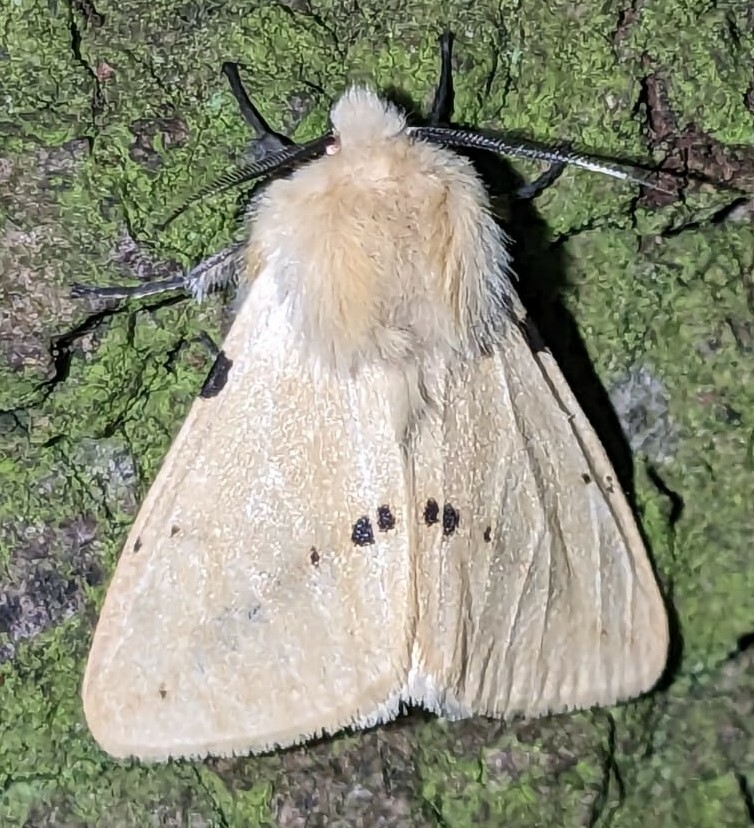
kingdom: Animalia
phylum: Arthropoda
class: Insecta
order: Lepidoptera
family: Erebidae
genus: Spilarctia
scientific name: Spilarctia lutea
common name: Buff ermine
